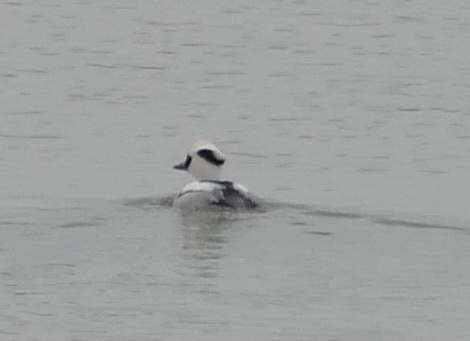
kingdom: Animalia
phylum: Chordata
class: Aves
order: Anseriformes
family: Anatidae
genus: Mergellus
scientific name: Mergellus albellus
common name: Smew
